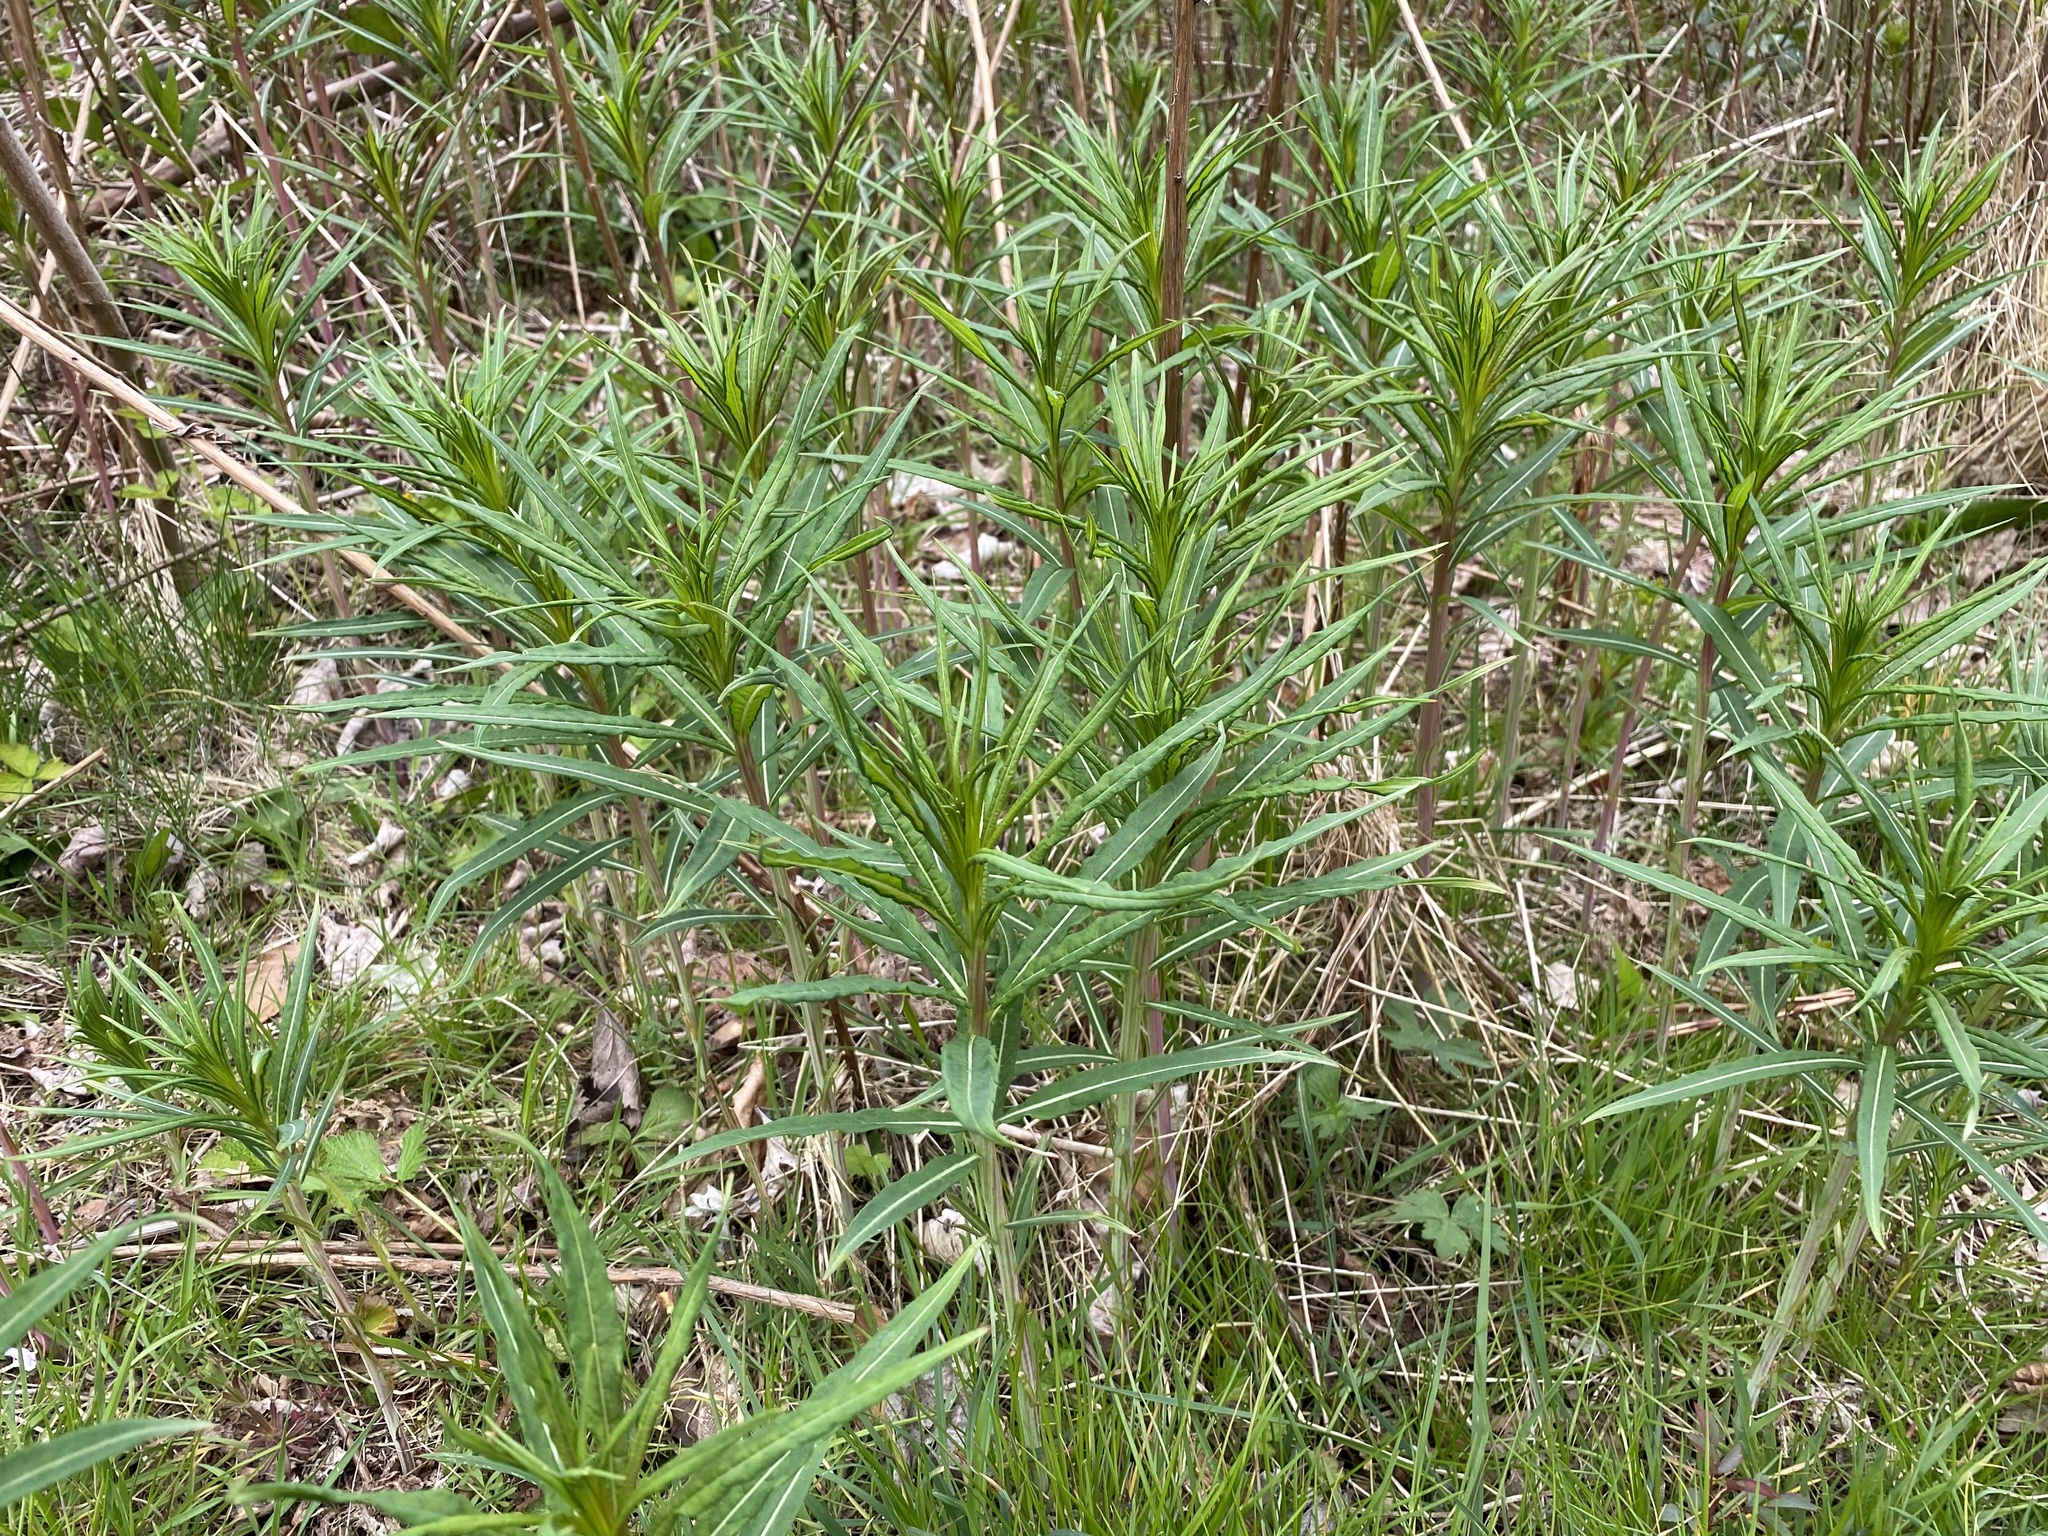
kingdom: Plantae
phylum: Tracheophyta
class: Magnoliopsida
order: Myrtales
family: Onagraceae
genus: Chamaenerion
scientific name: Chamaenerion angustifolium
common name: Fireweed
